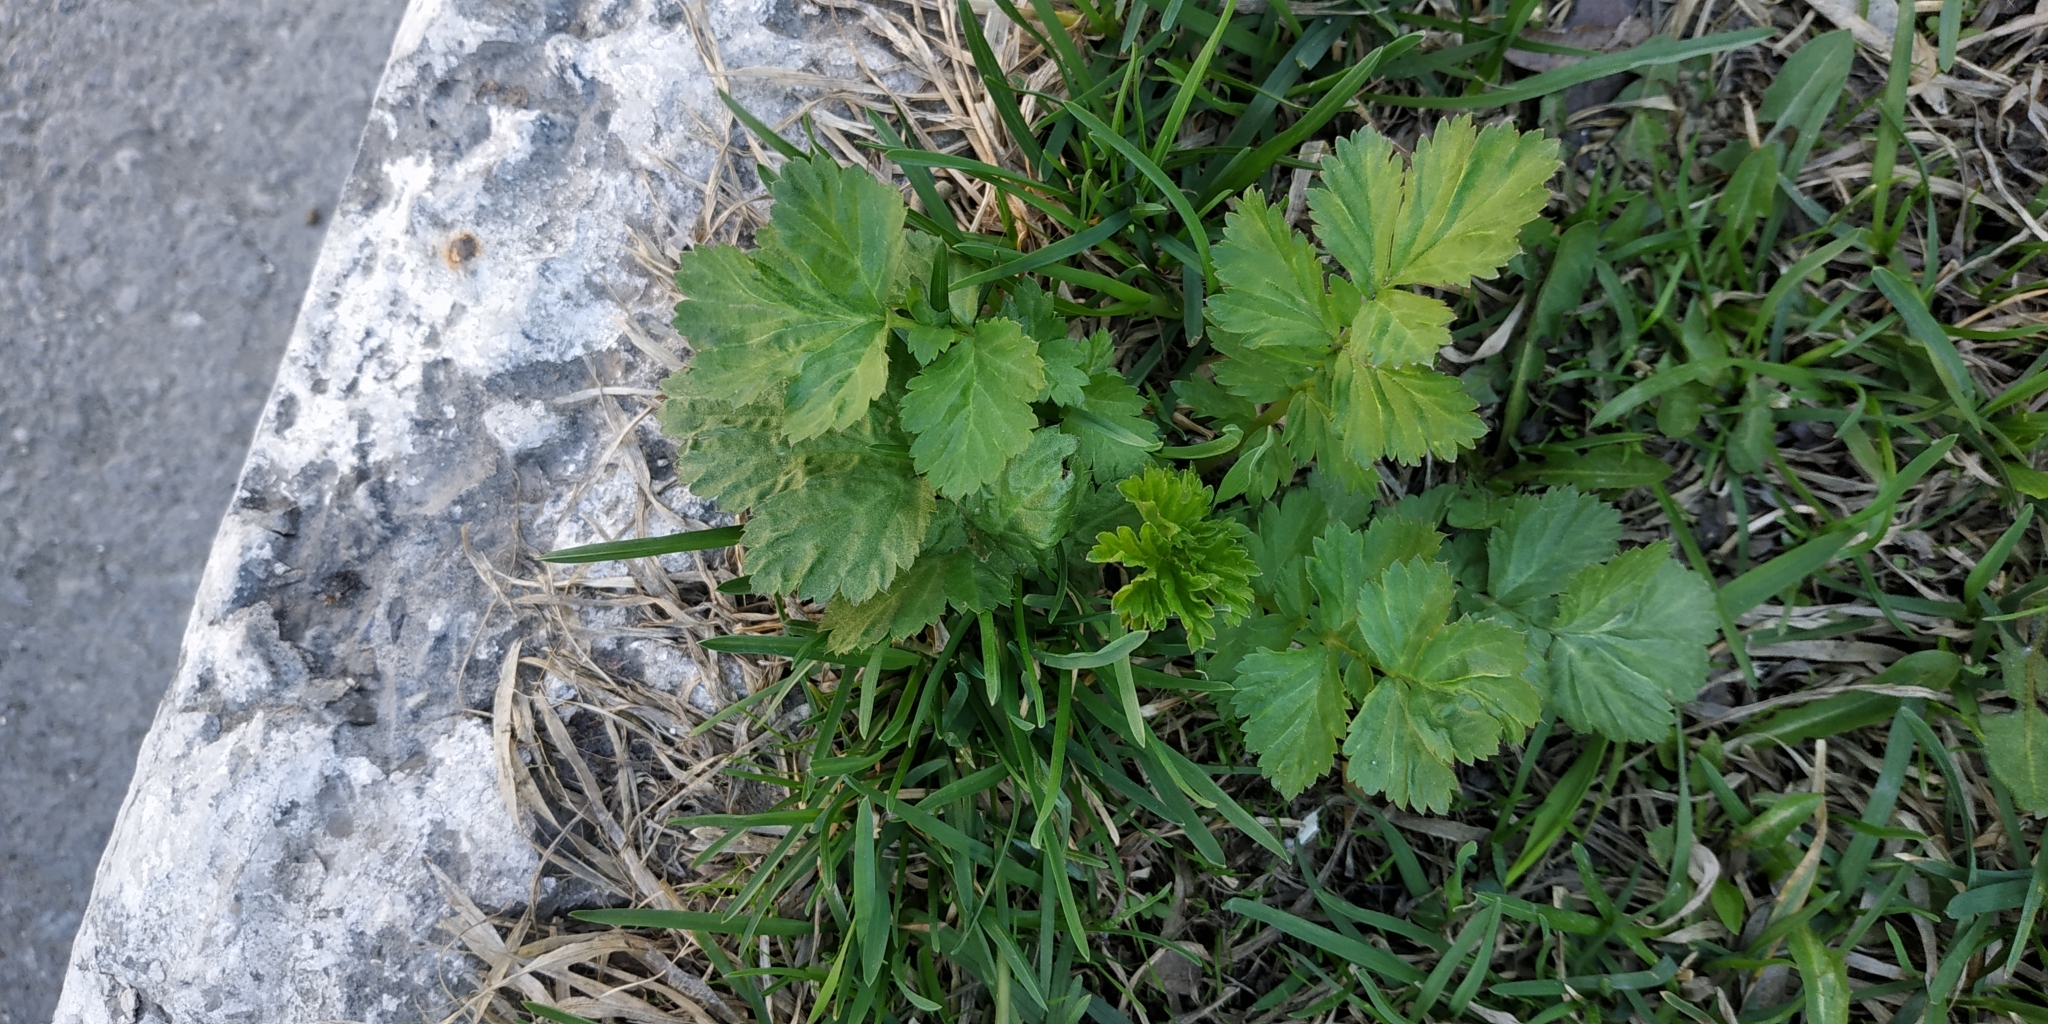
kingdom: Plantae
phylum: Tracheophyta
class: Magnoliopsida
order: Rosales
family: Rosaceae
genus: Geum
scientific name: Geum aleppicum
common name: Yellow avens
